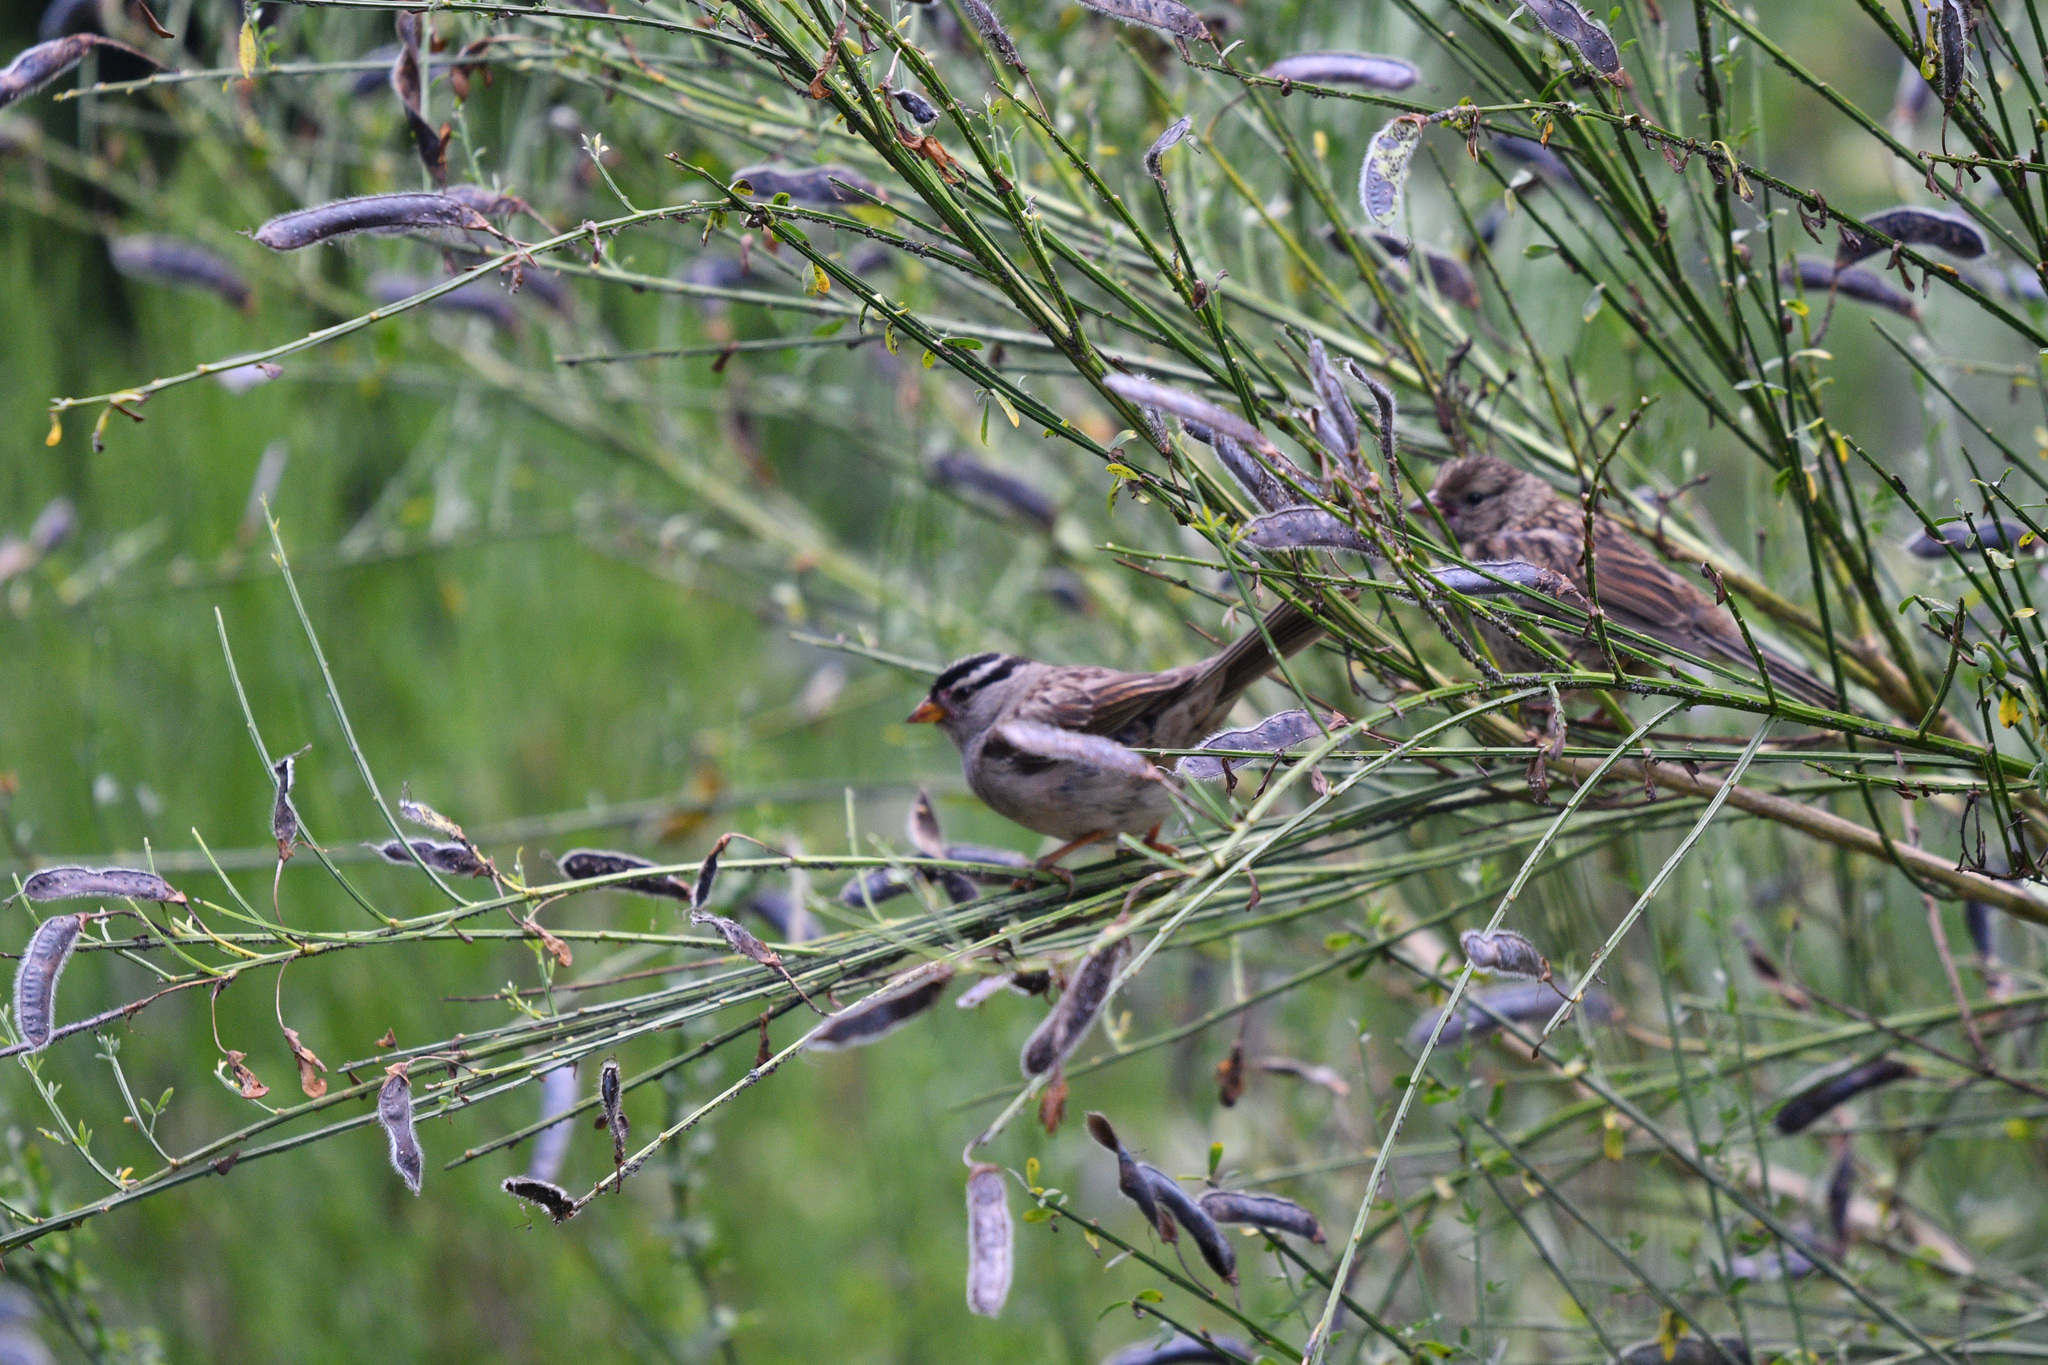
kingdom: Plantae
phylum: Tracheophyta
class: Magnoliopsida
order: Fabales
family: Fabaceae
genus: Cytisus
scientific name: Cytisus scoparius
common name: Scotch broom
